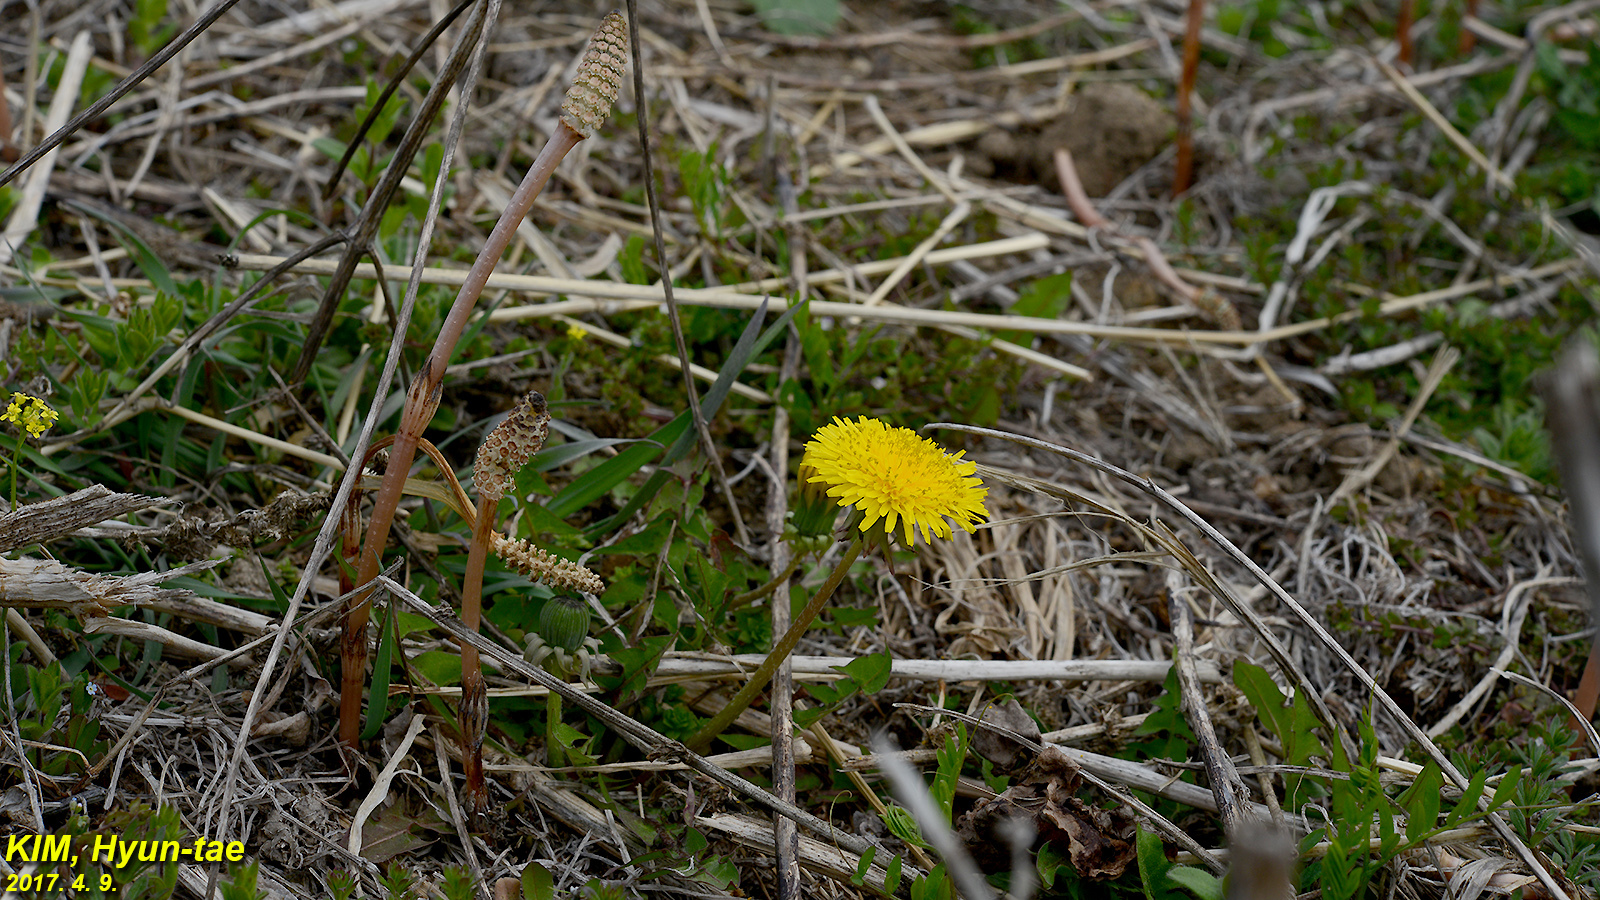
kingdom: Plantae
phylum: Tracheophyta
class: Magnoliopsida
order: Asterales
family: Asteraceae
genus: Taraxacum
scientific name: Taraxacum officinale
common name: Common dandelion
